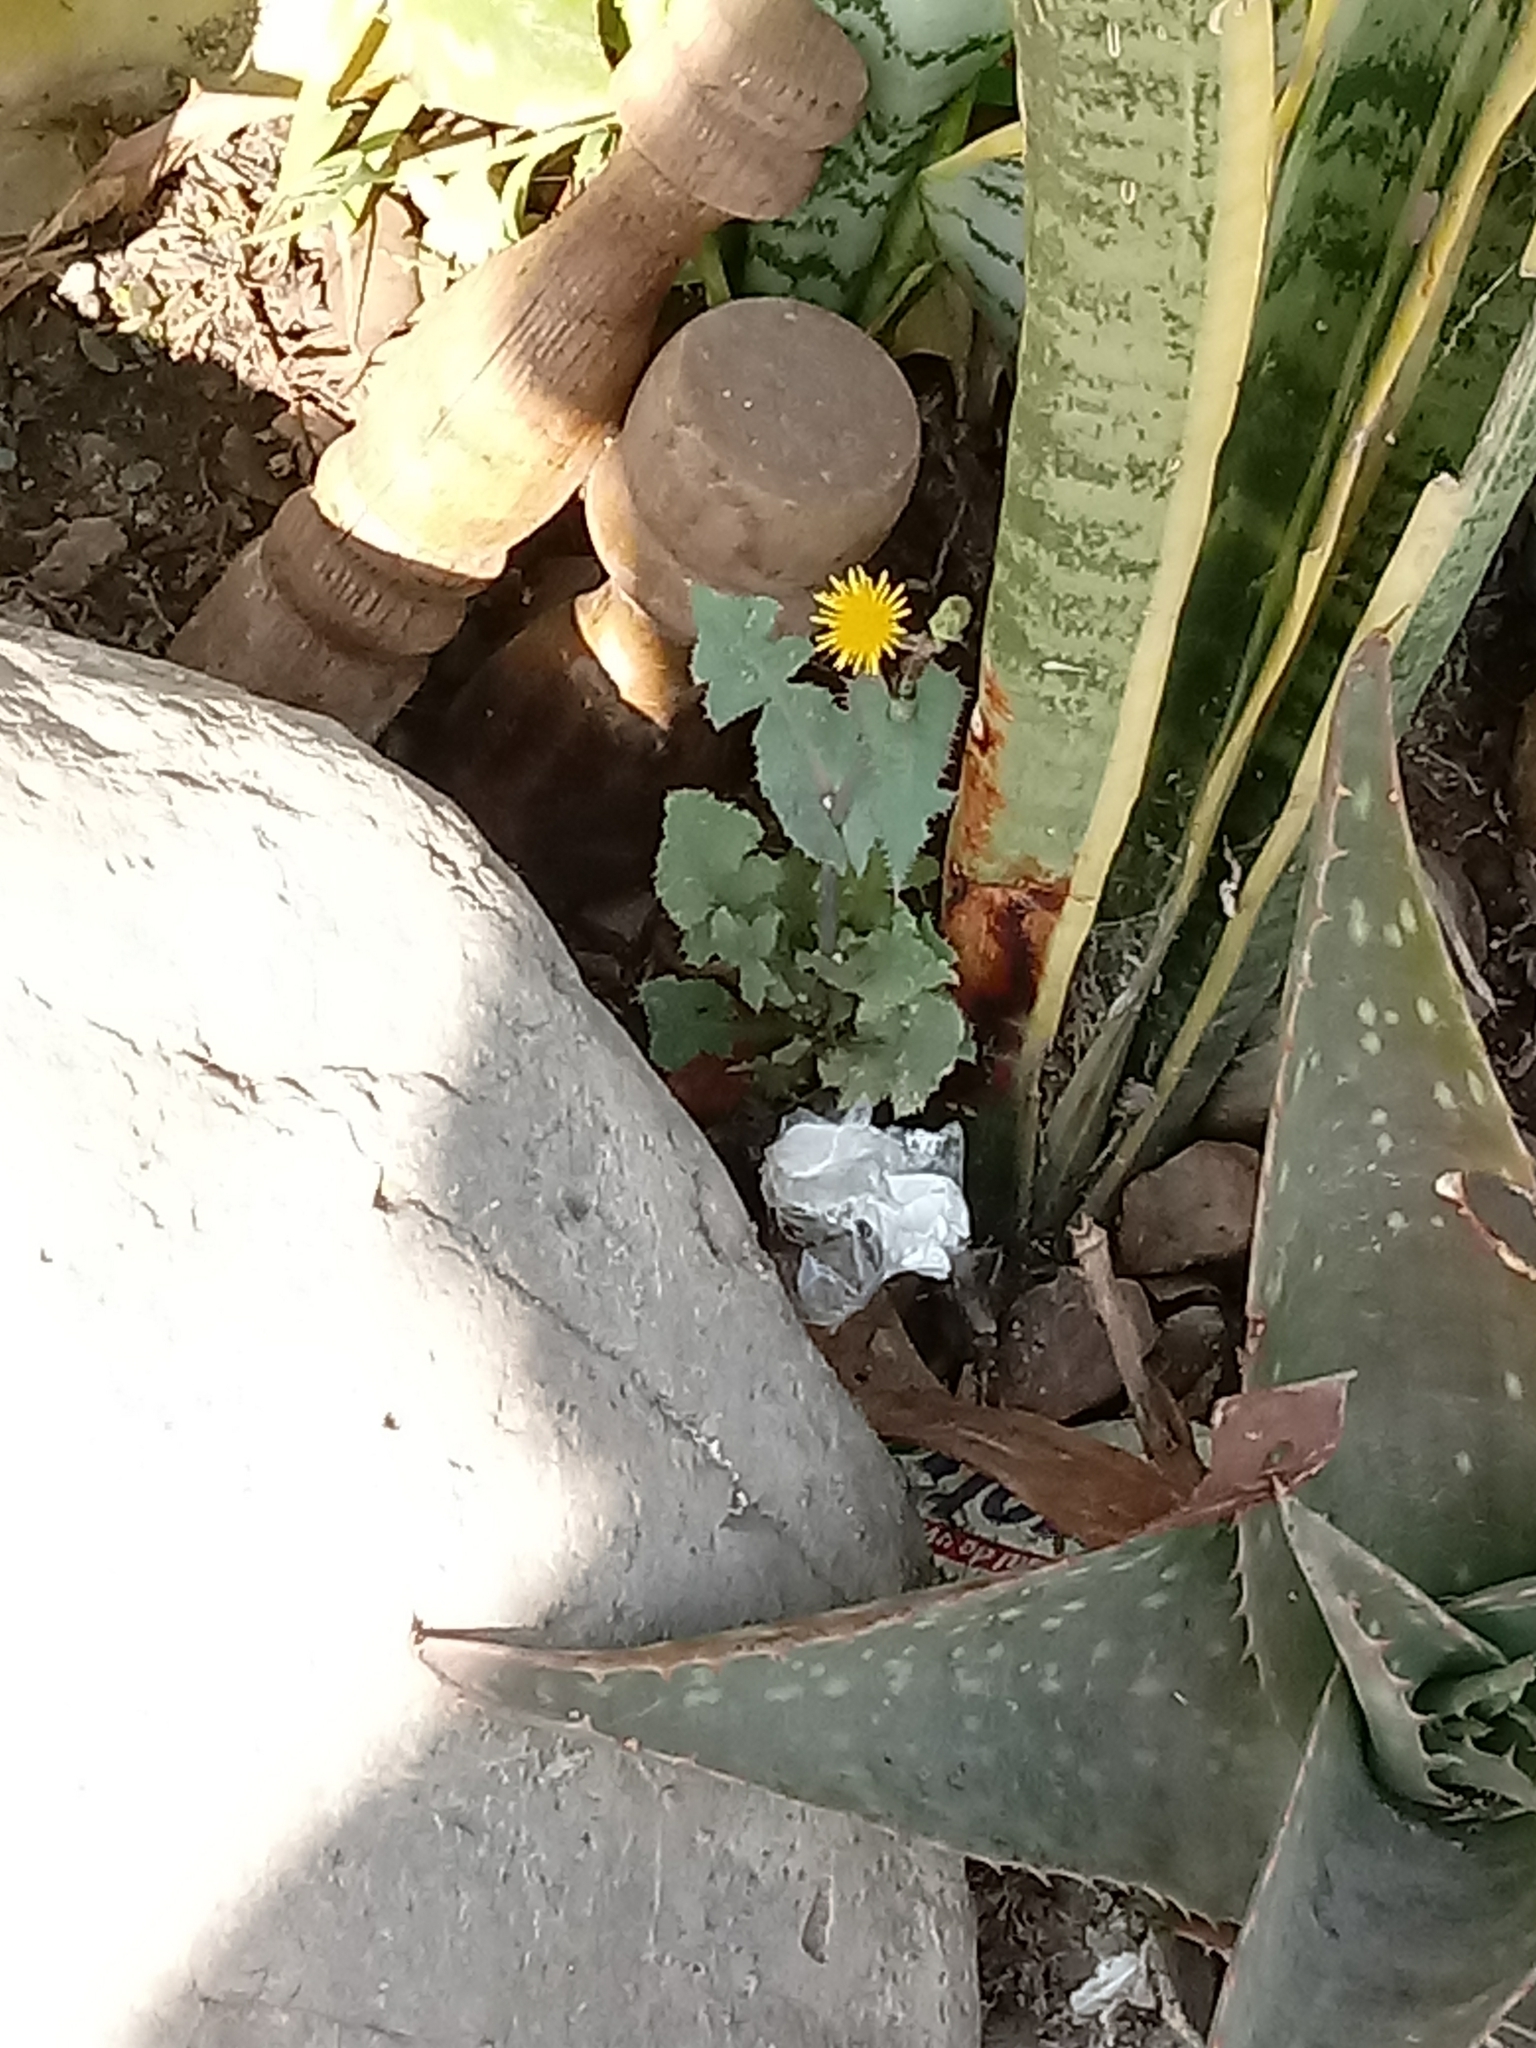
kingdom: Plantae
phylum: Tracheophyta
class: Magnoliopsida
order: Asterales
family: Asteraceae
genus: Sonchus
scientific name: Sonchus oleraceus
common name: Common sowthistle
